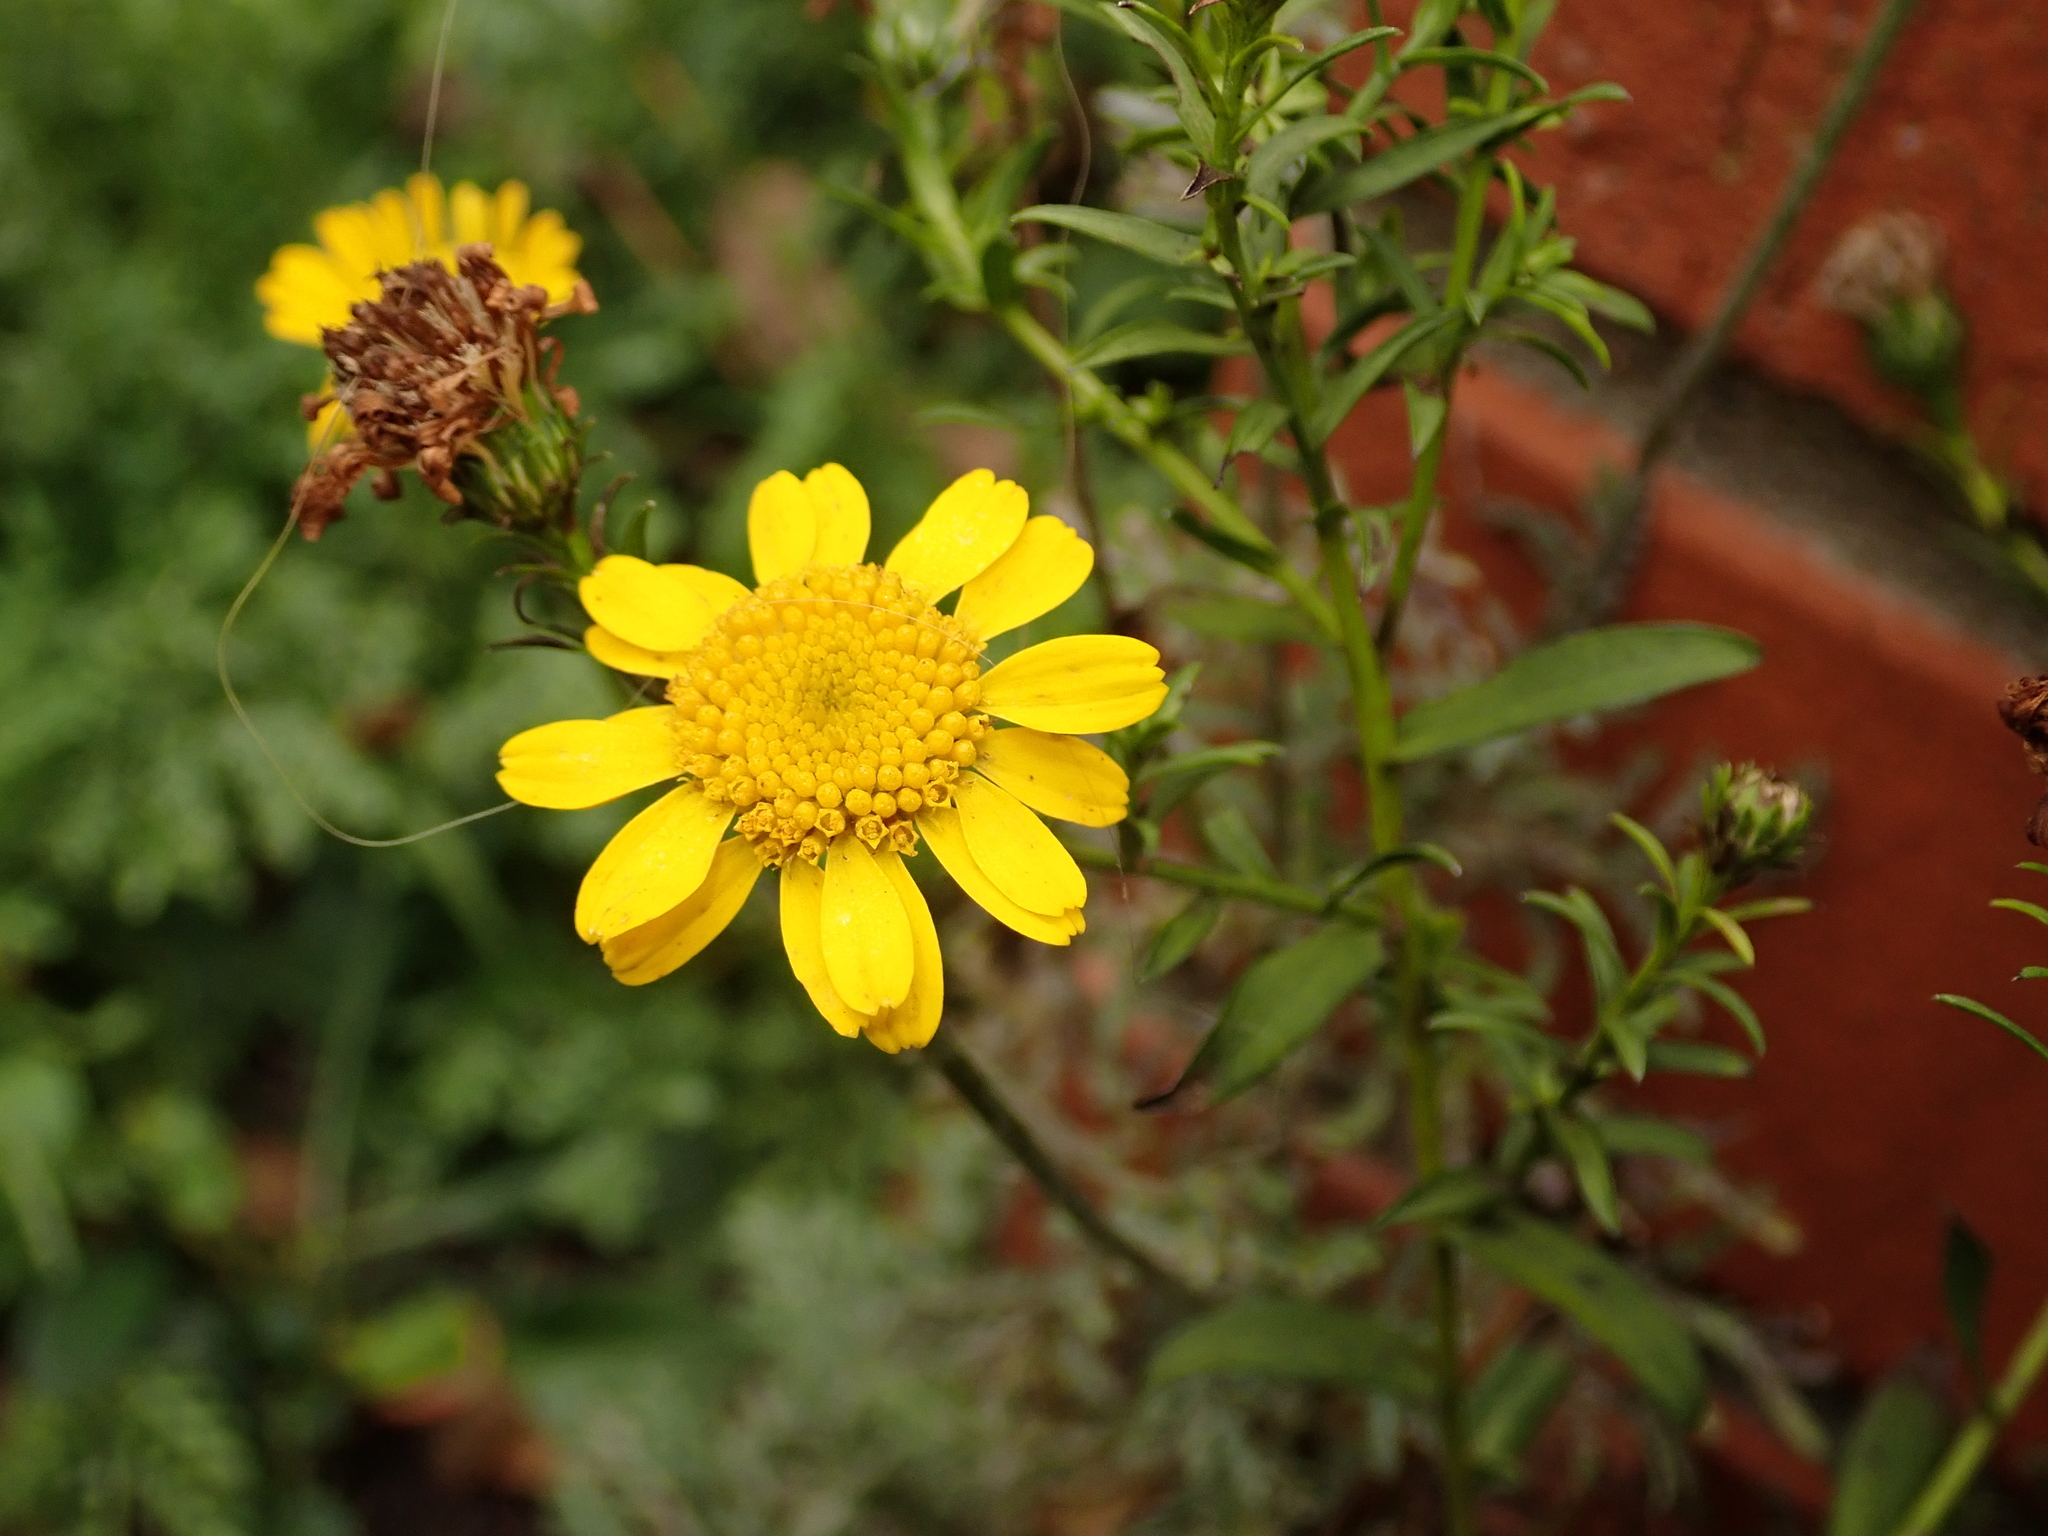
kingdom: Plantae
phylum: Tracheophyta
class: Magnoliopsida
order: Asterales
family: Asteraceae
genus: Cota
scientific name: Cota tinctoria
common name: Golden chamomile
